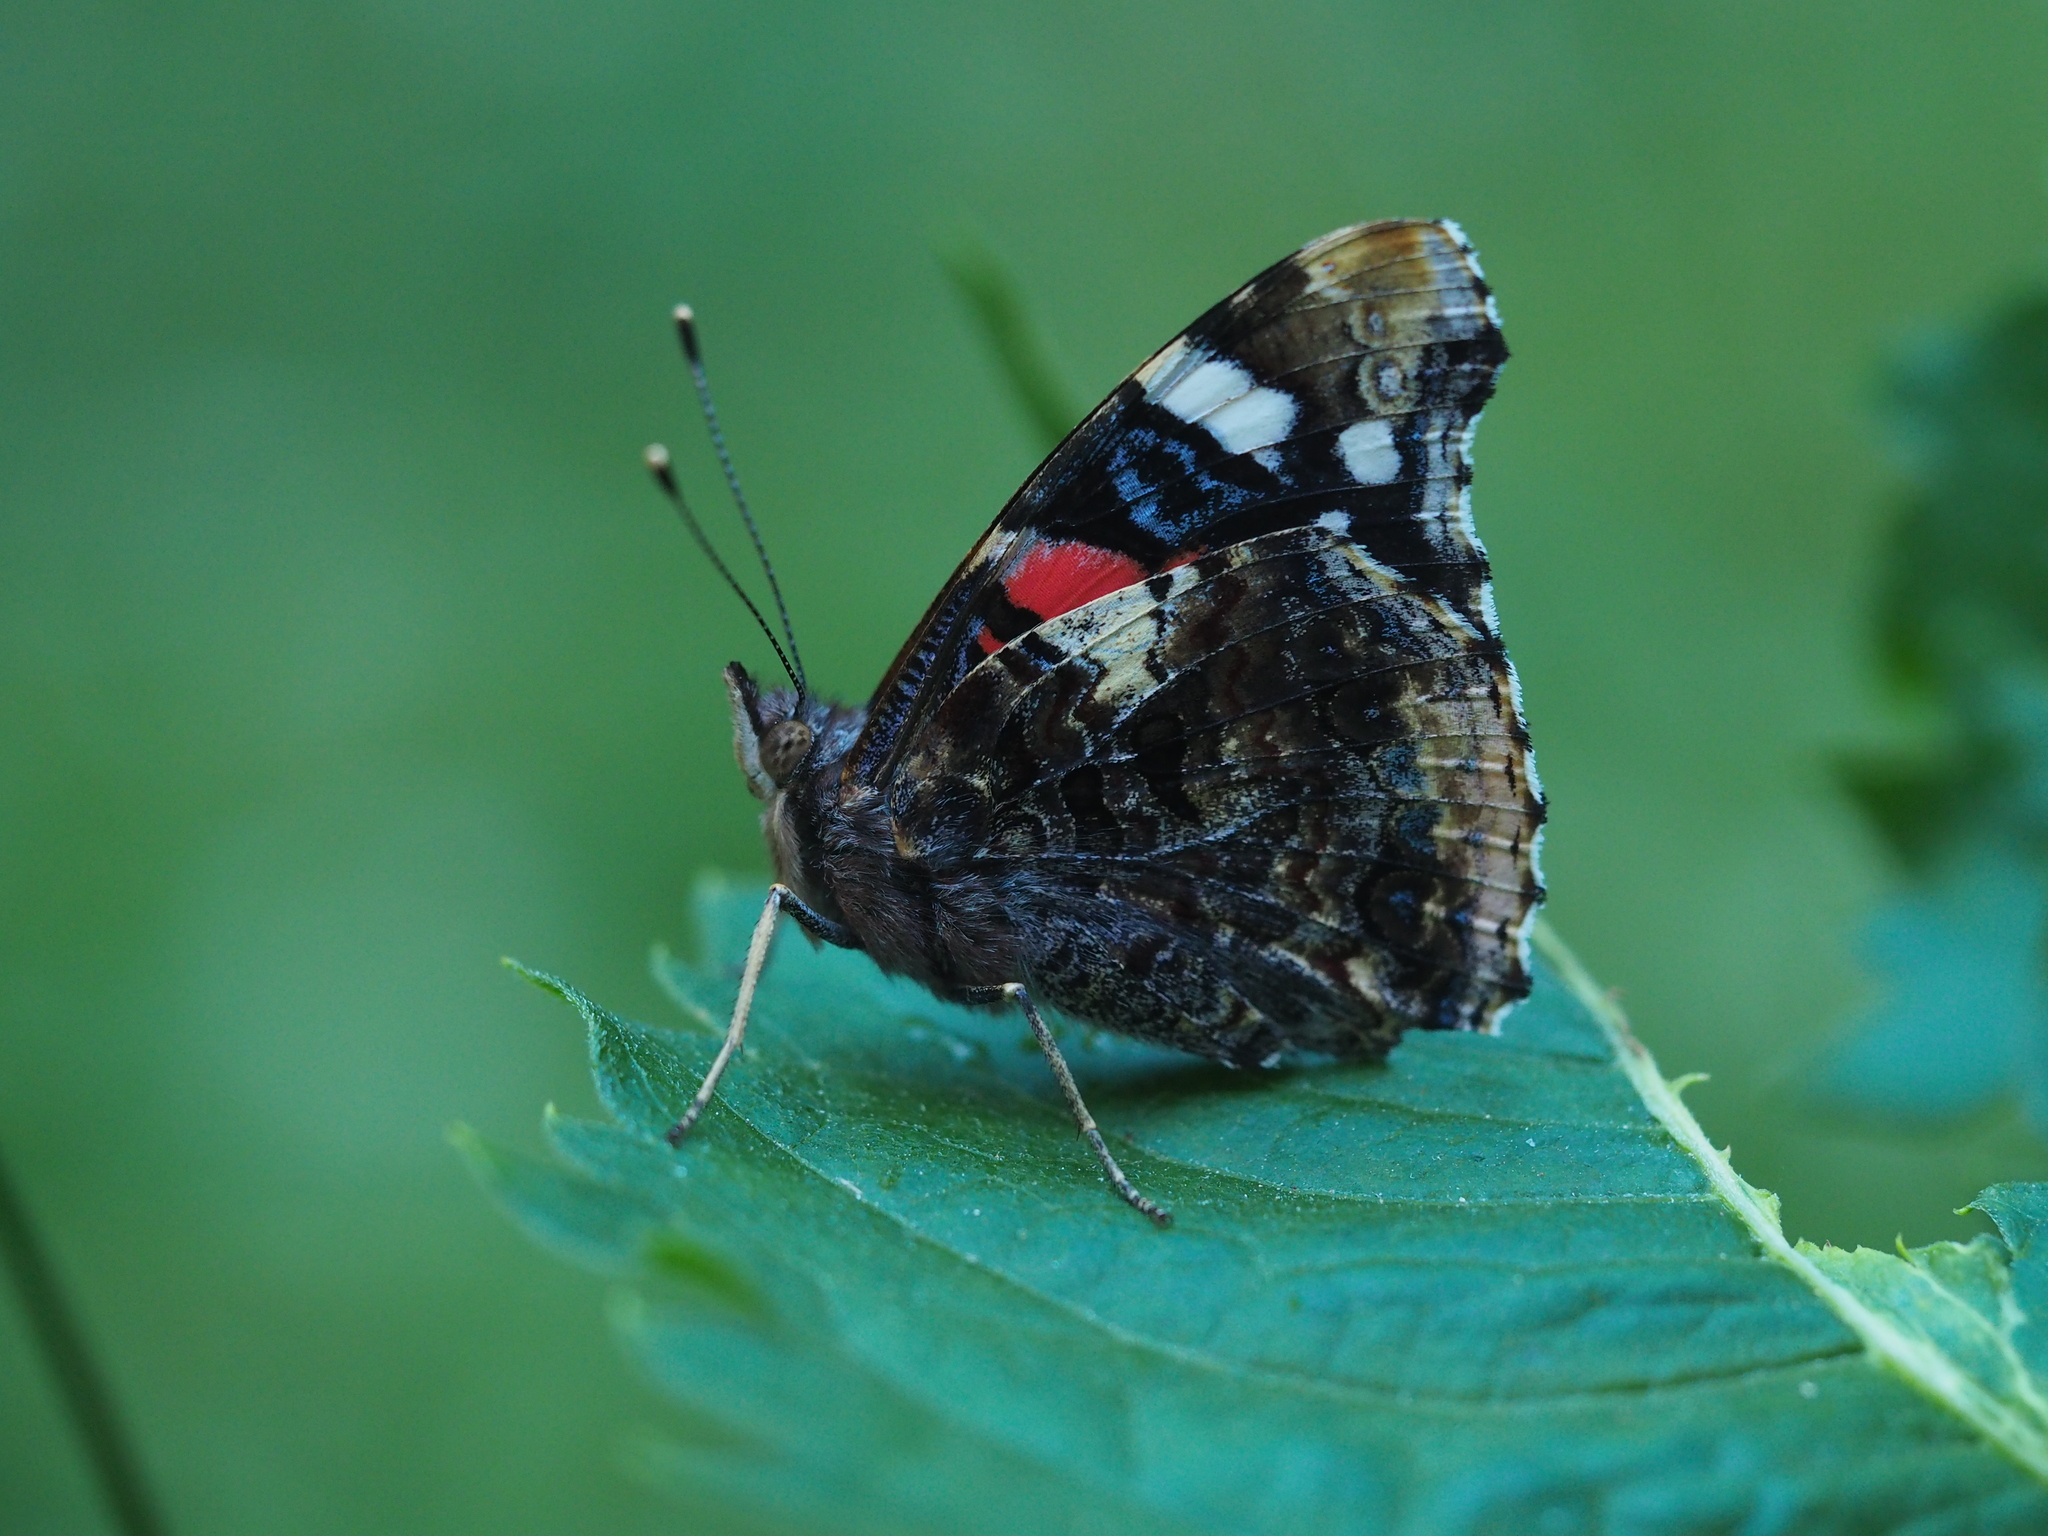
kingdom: Animalia
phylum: Arthropoda
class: Insecta
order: Lepidoptera
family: Nymphalidae
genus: Vanessa
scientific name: Vanessa atalanta
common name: Red admiral
